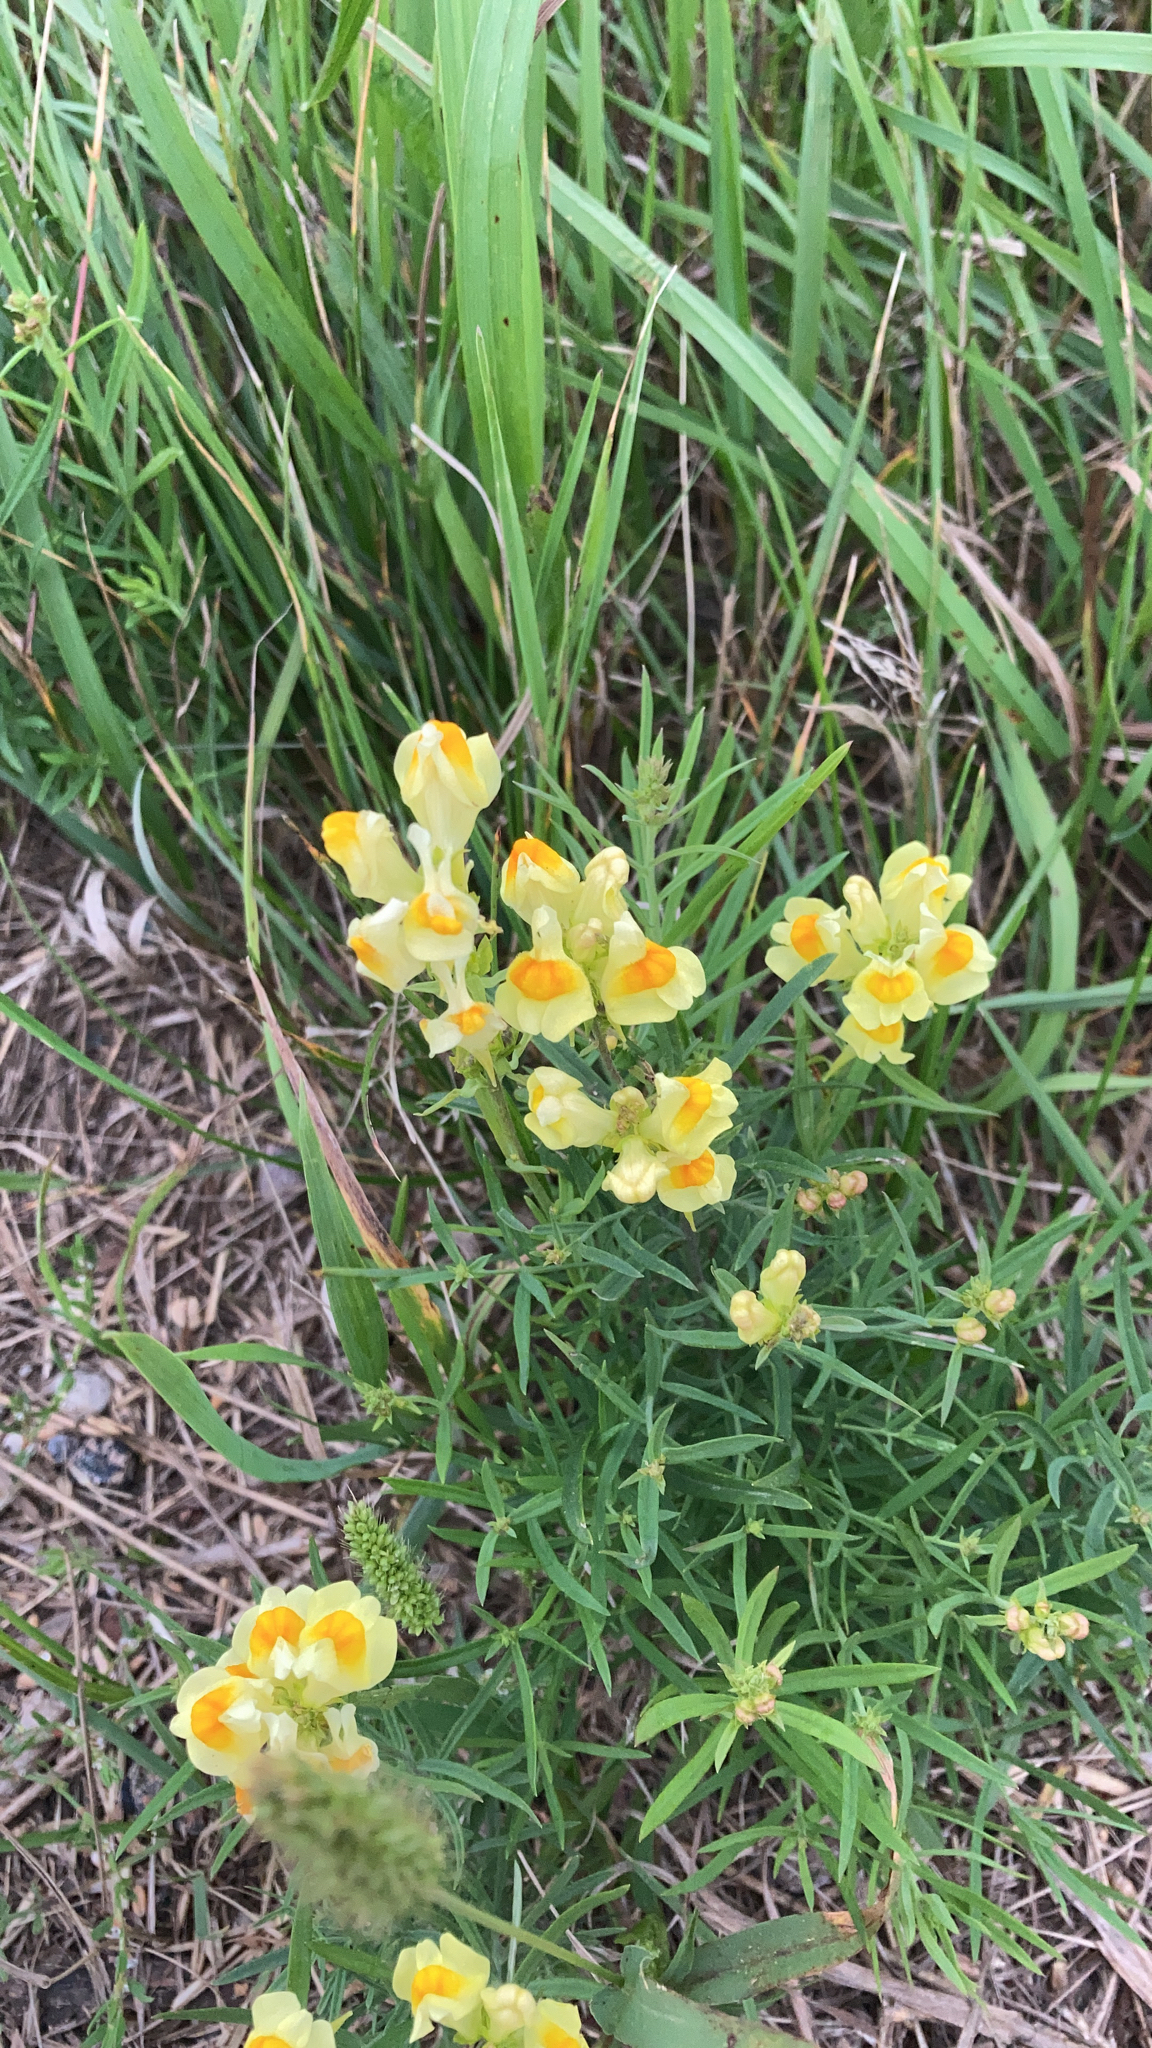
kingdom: Plantae
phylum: Tracheophyta
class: Magnoliopsida
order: Lamiales
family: Plantaginaceae
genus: Linaria
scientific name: Linaria vulgaris
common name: Butter and eggs
